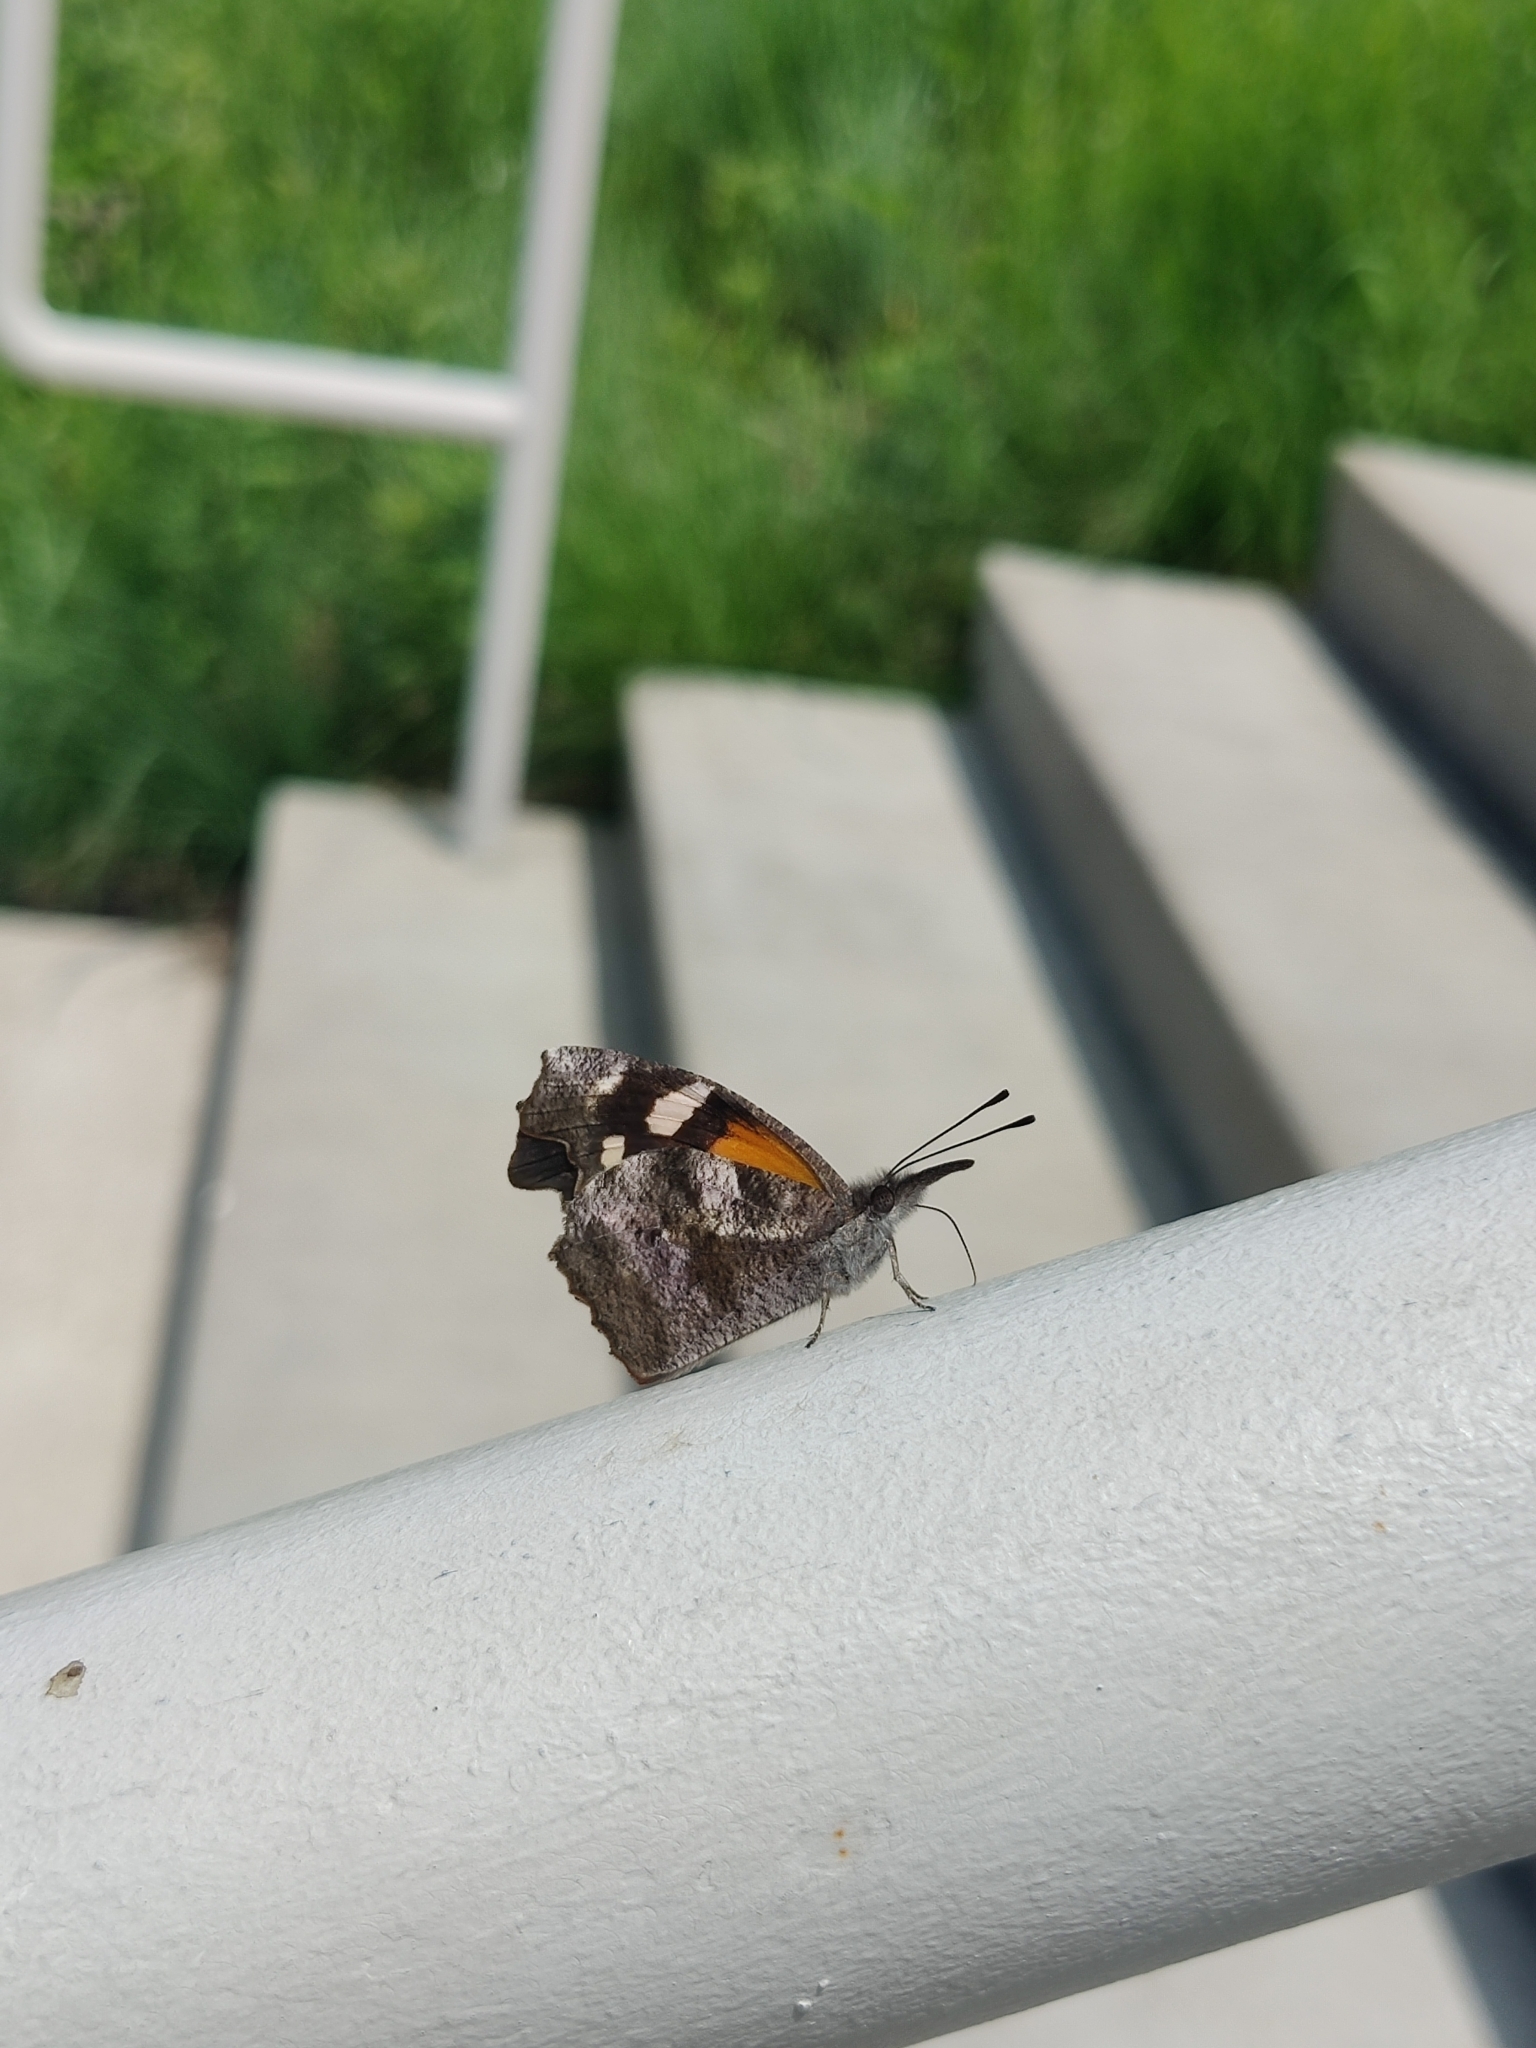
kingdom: Animalia
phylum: Arthropoda
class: Insecta
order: Lepidoptera
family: Nymphalidae
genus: Libytheana
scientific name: Libytheana carinenta
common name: American snout
